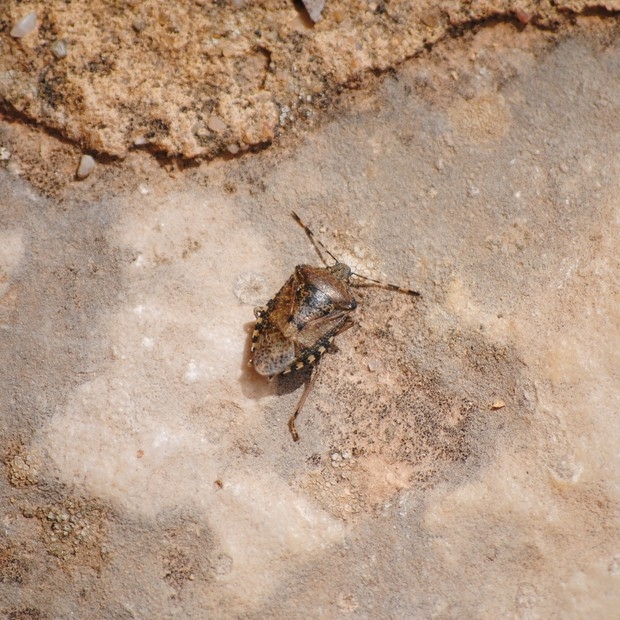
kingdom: Animalia
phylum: Arthropoda
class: Insecta
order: Hemiptera
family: Pentatomidae
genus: Rhaphigaster
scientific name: Rhaphigaster nebulosa
